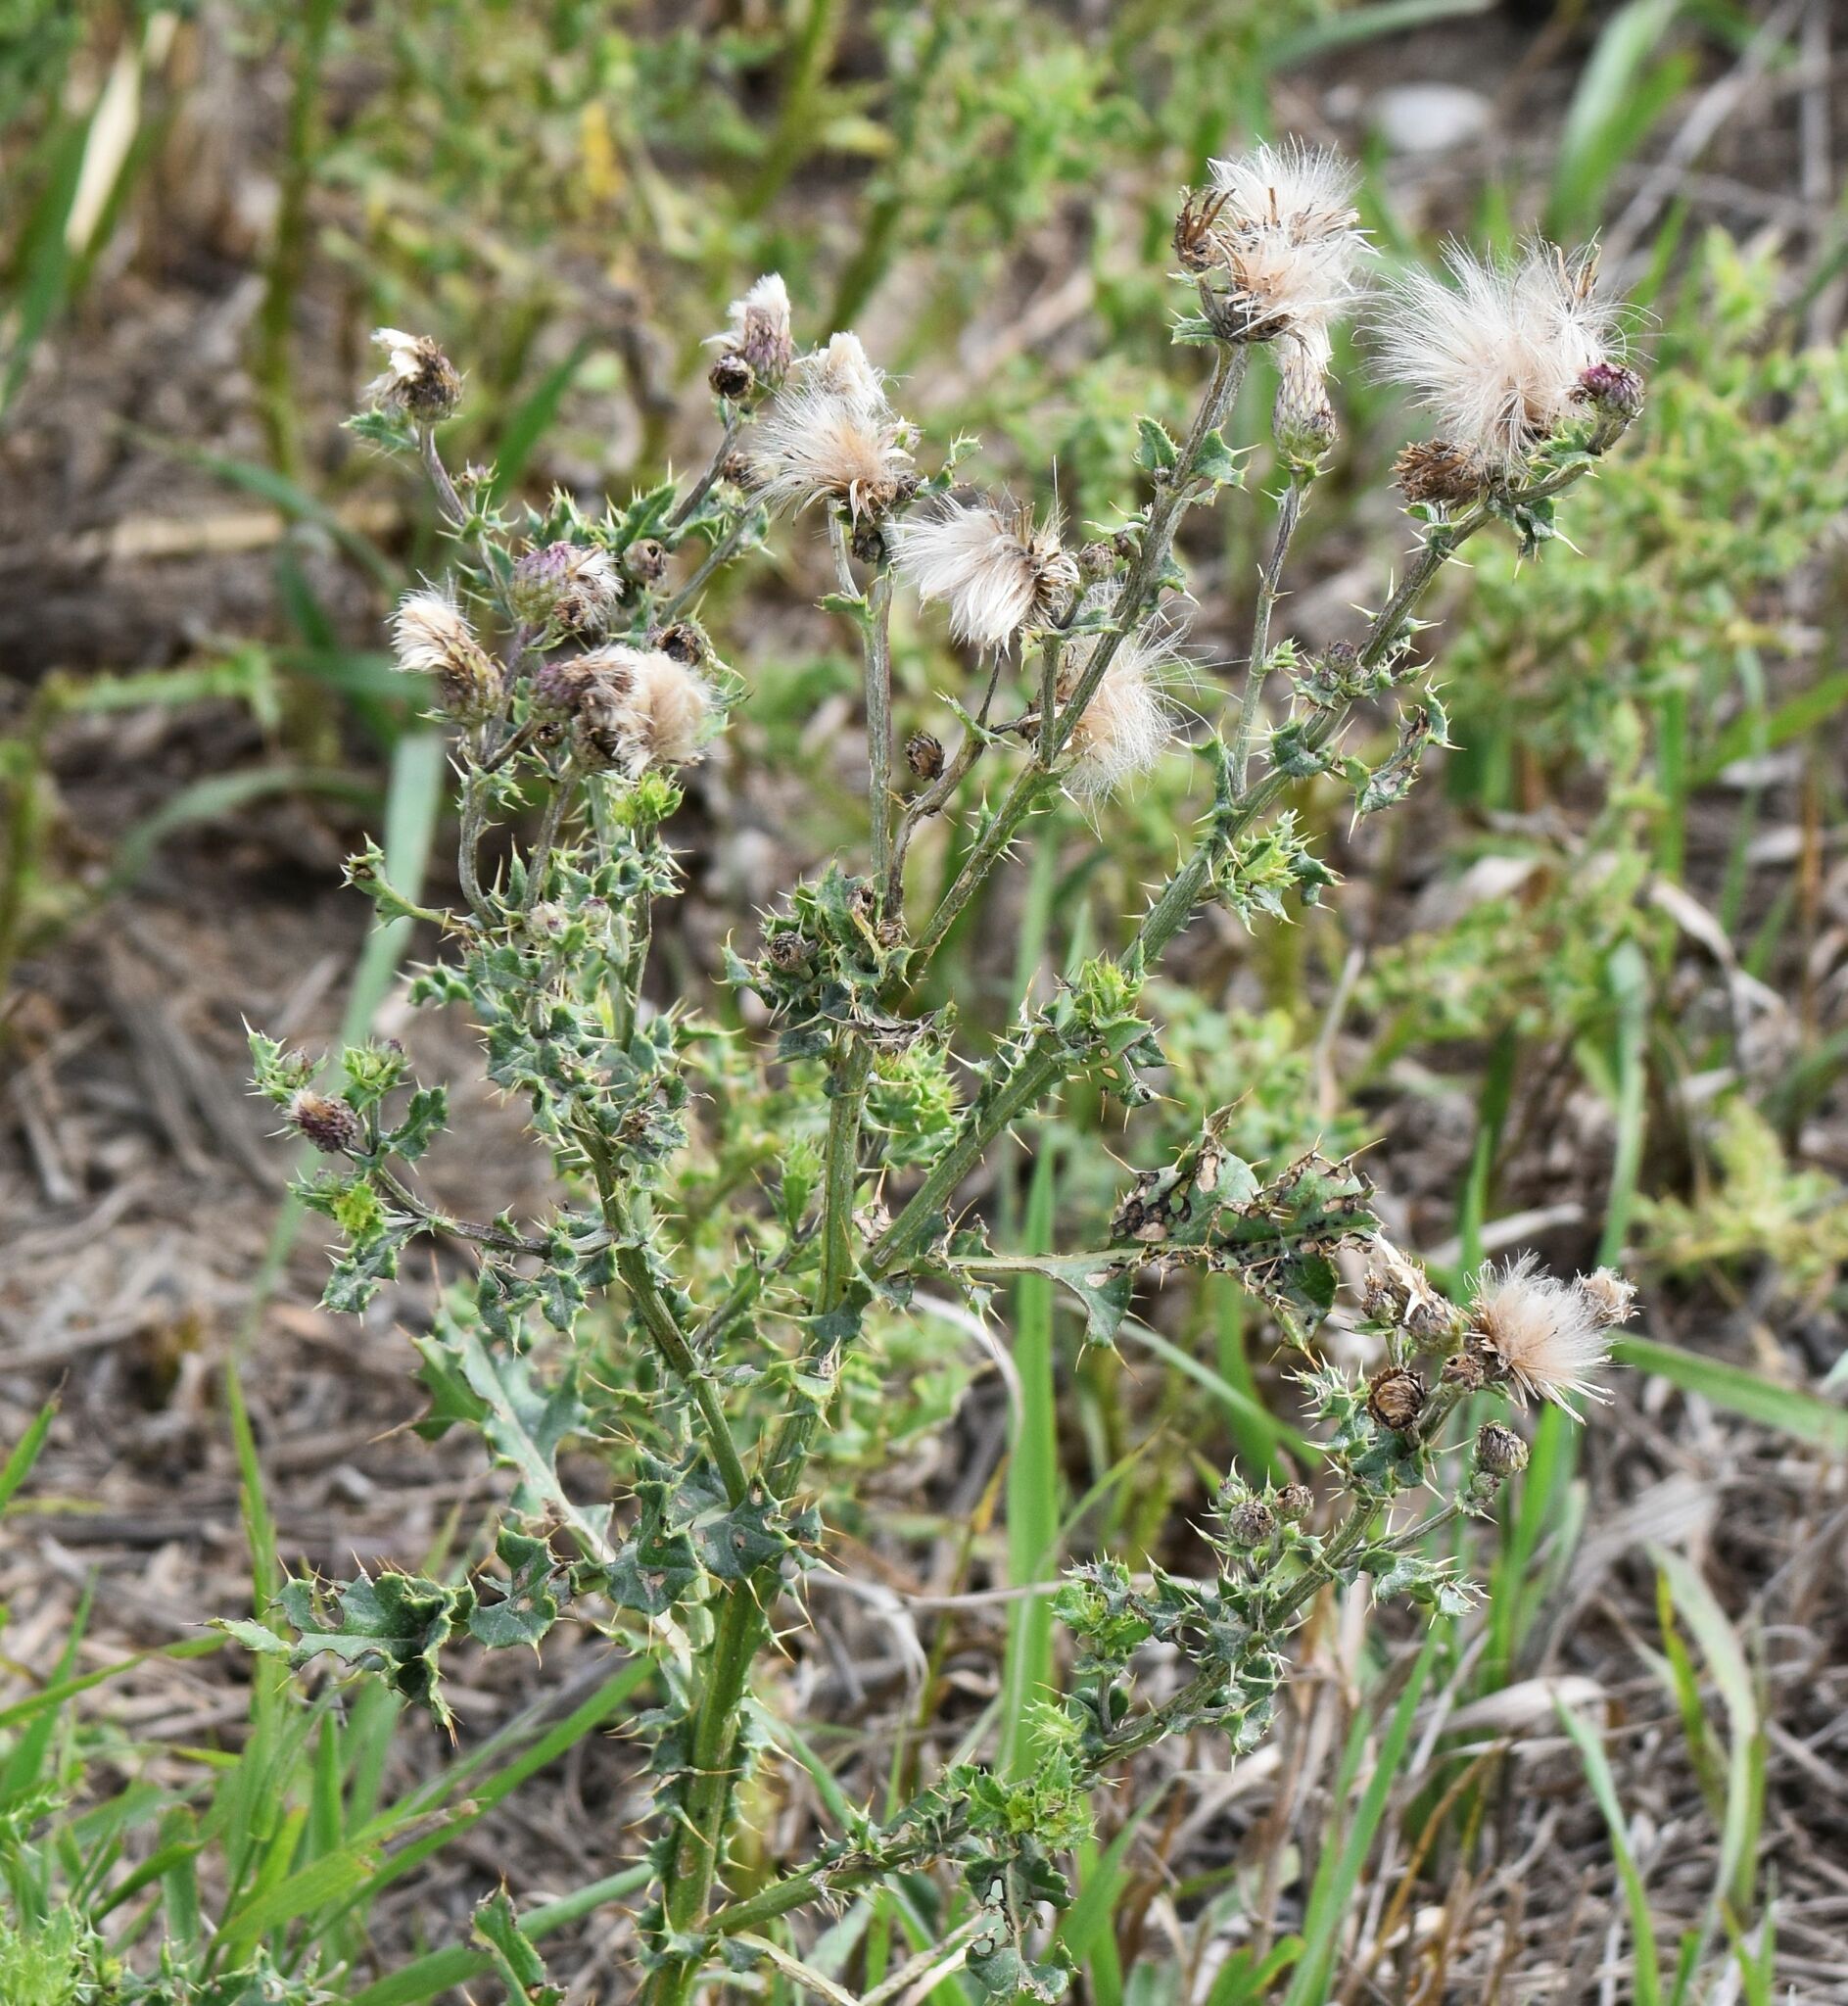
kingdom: Plantae
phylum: Tracheophyta
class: Magnoliopsida
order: Asterales
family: Asteraceae
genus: Cirsium
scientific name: Cirsium arvense
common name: Creeping thistle
